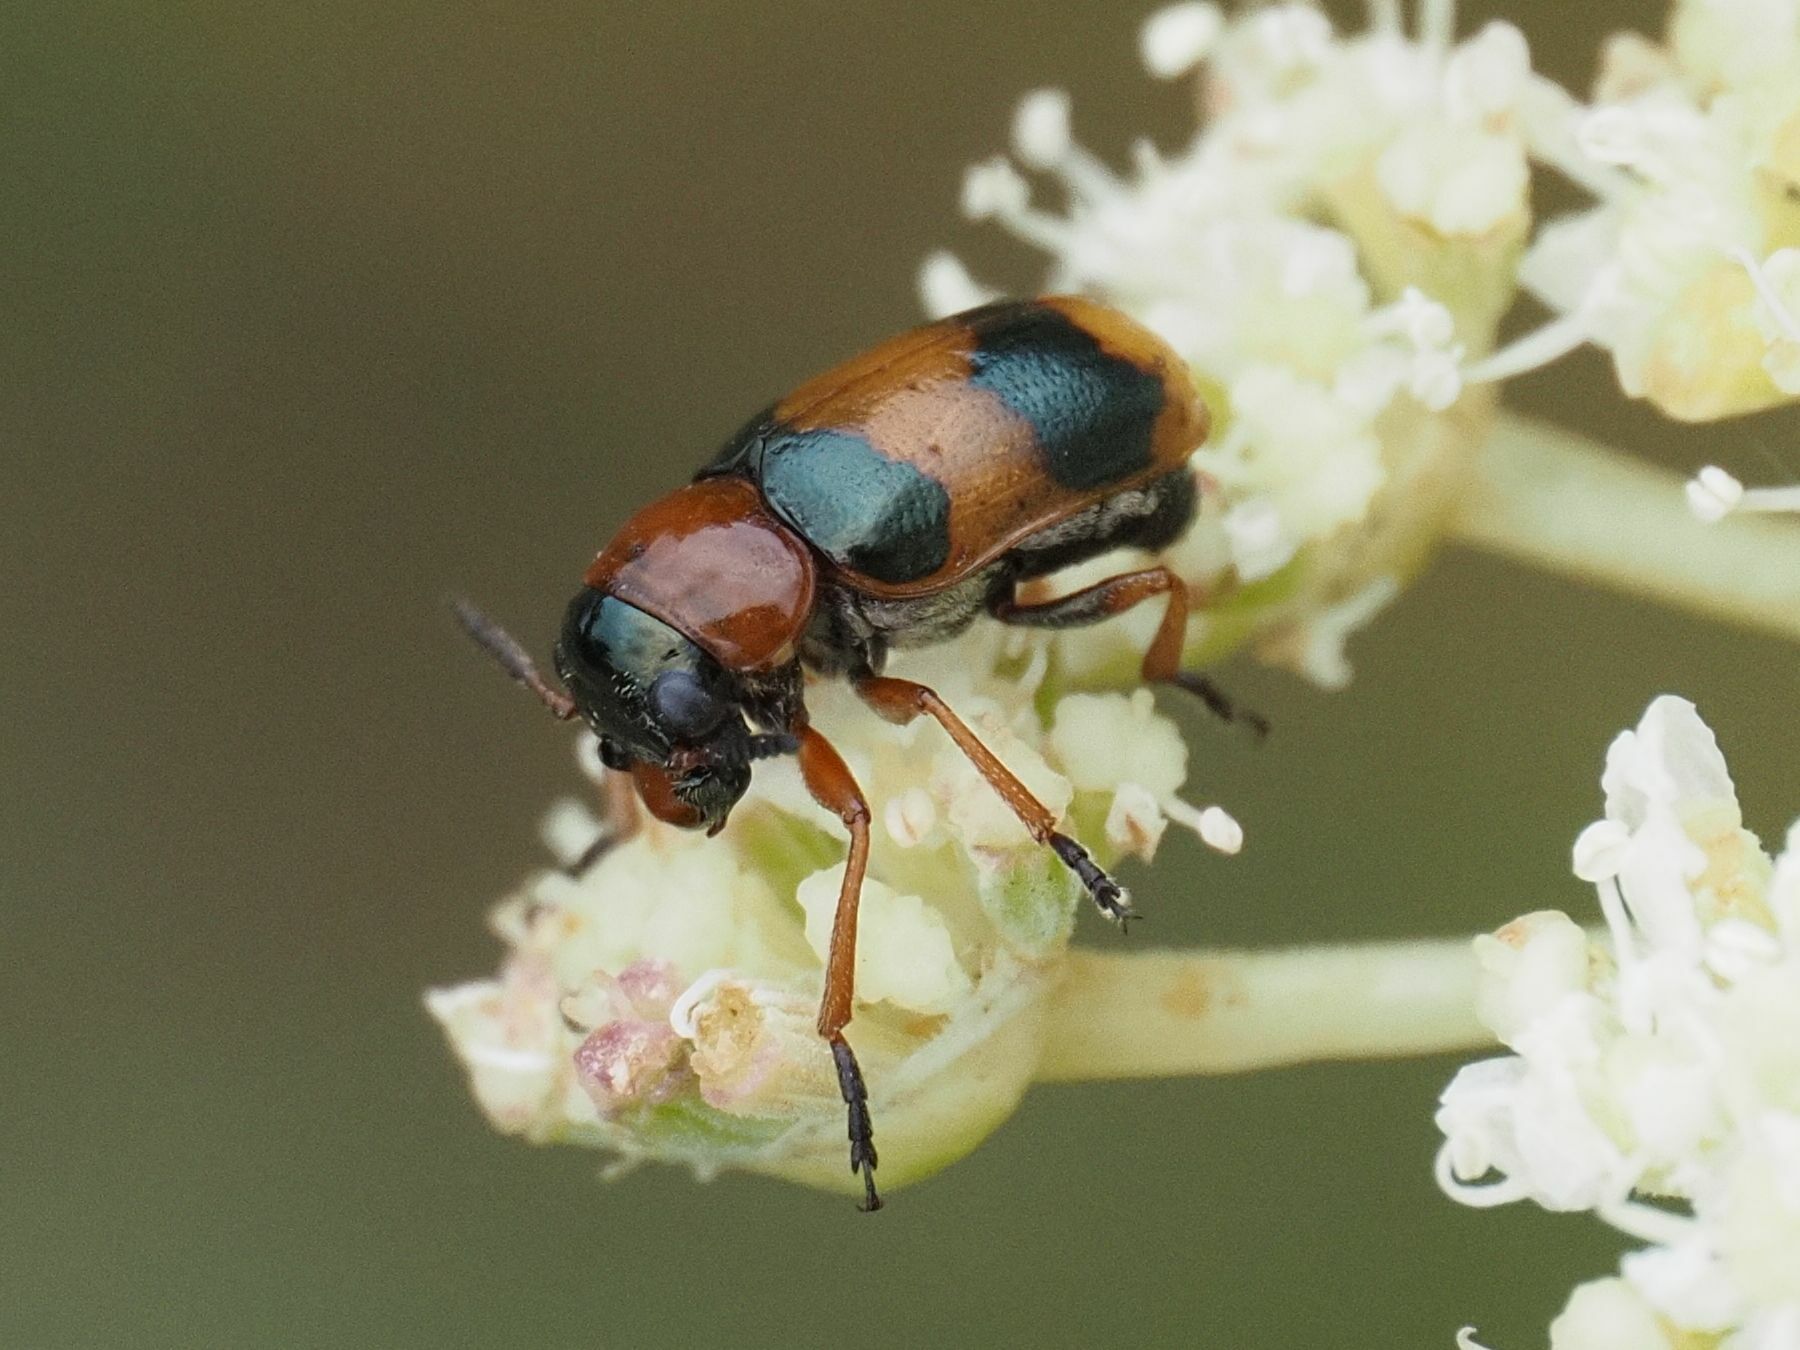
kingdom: Animalia
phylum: Arthropoda
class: Insecta
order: Coleoptera
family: Chrysomelidae
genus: Coptocephala
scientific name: Coptocephala unifasciata
